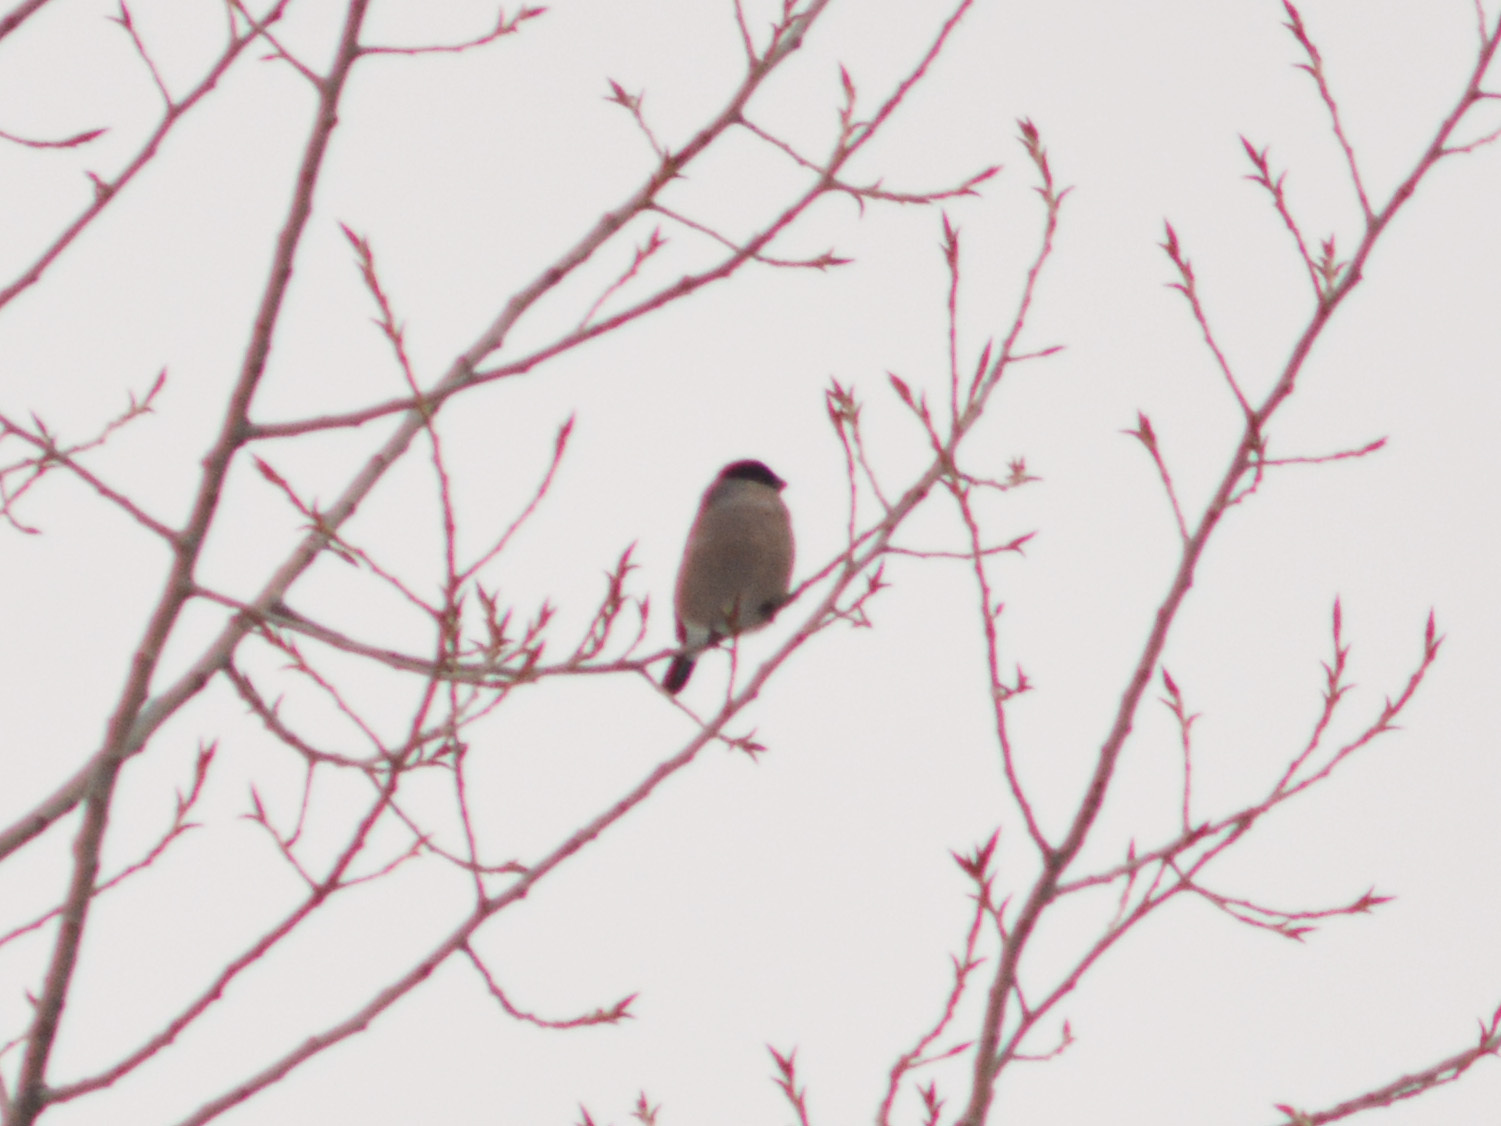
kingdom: Animalia
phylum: Chordata
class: Aves
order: Passeriformes
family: Fringillidae
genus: Pyrrhula
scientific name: Pyrrhula pyrrhula
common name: Eurasian bullfinch
